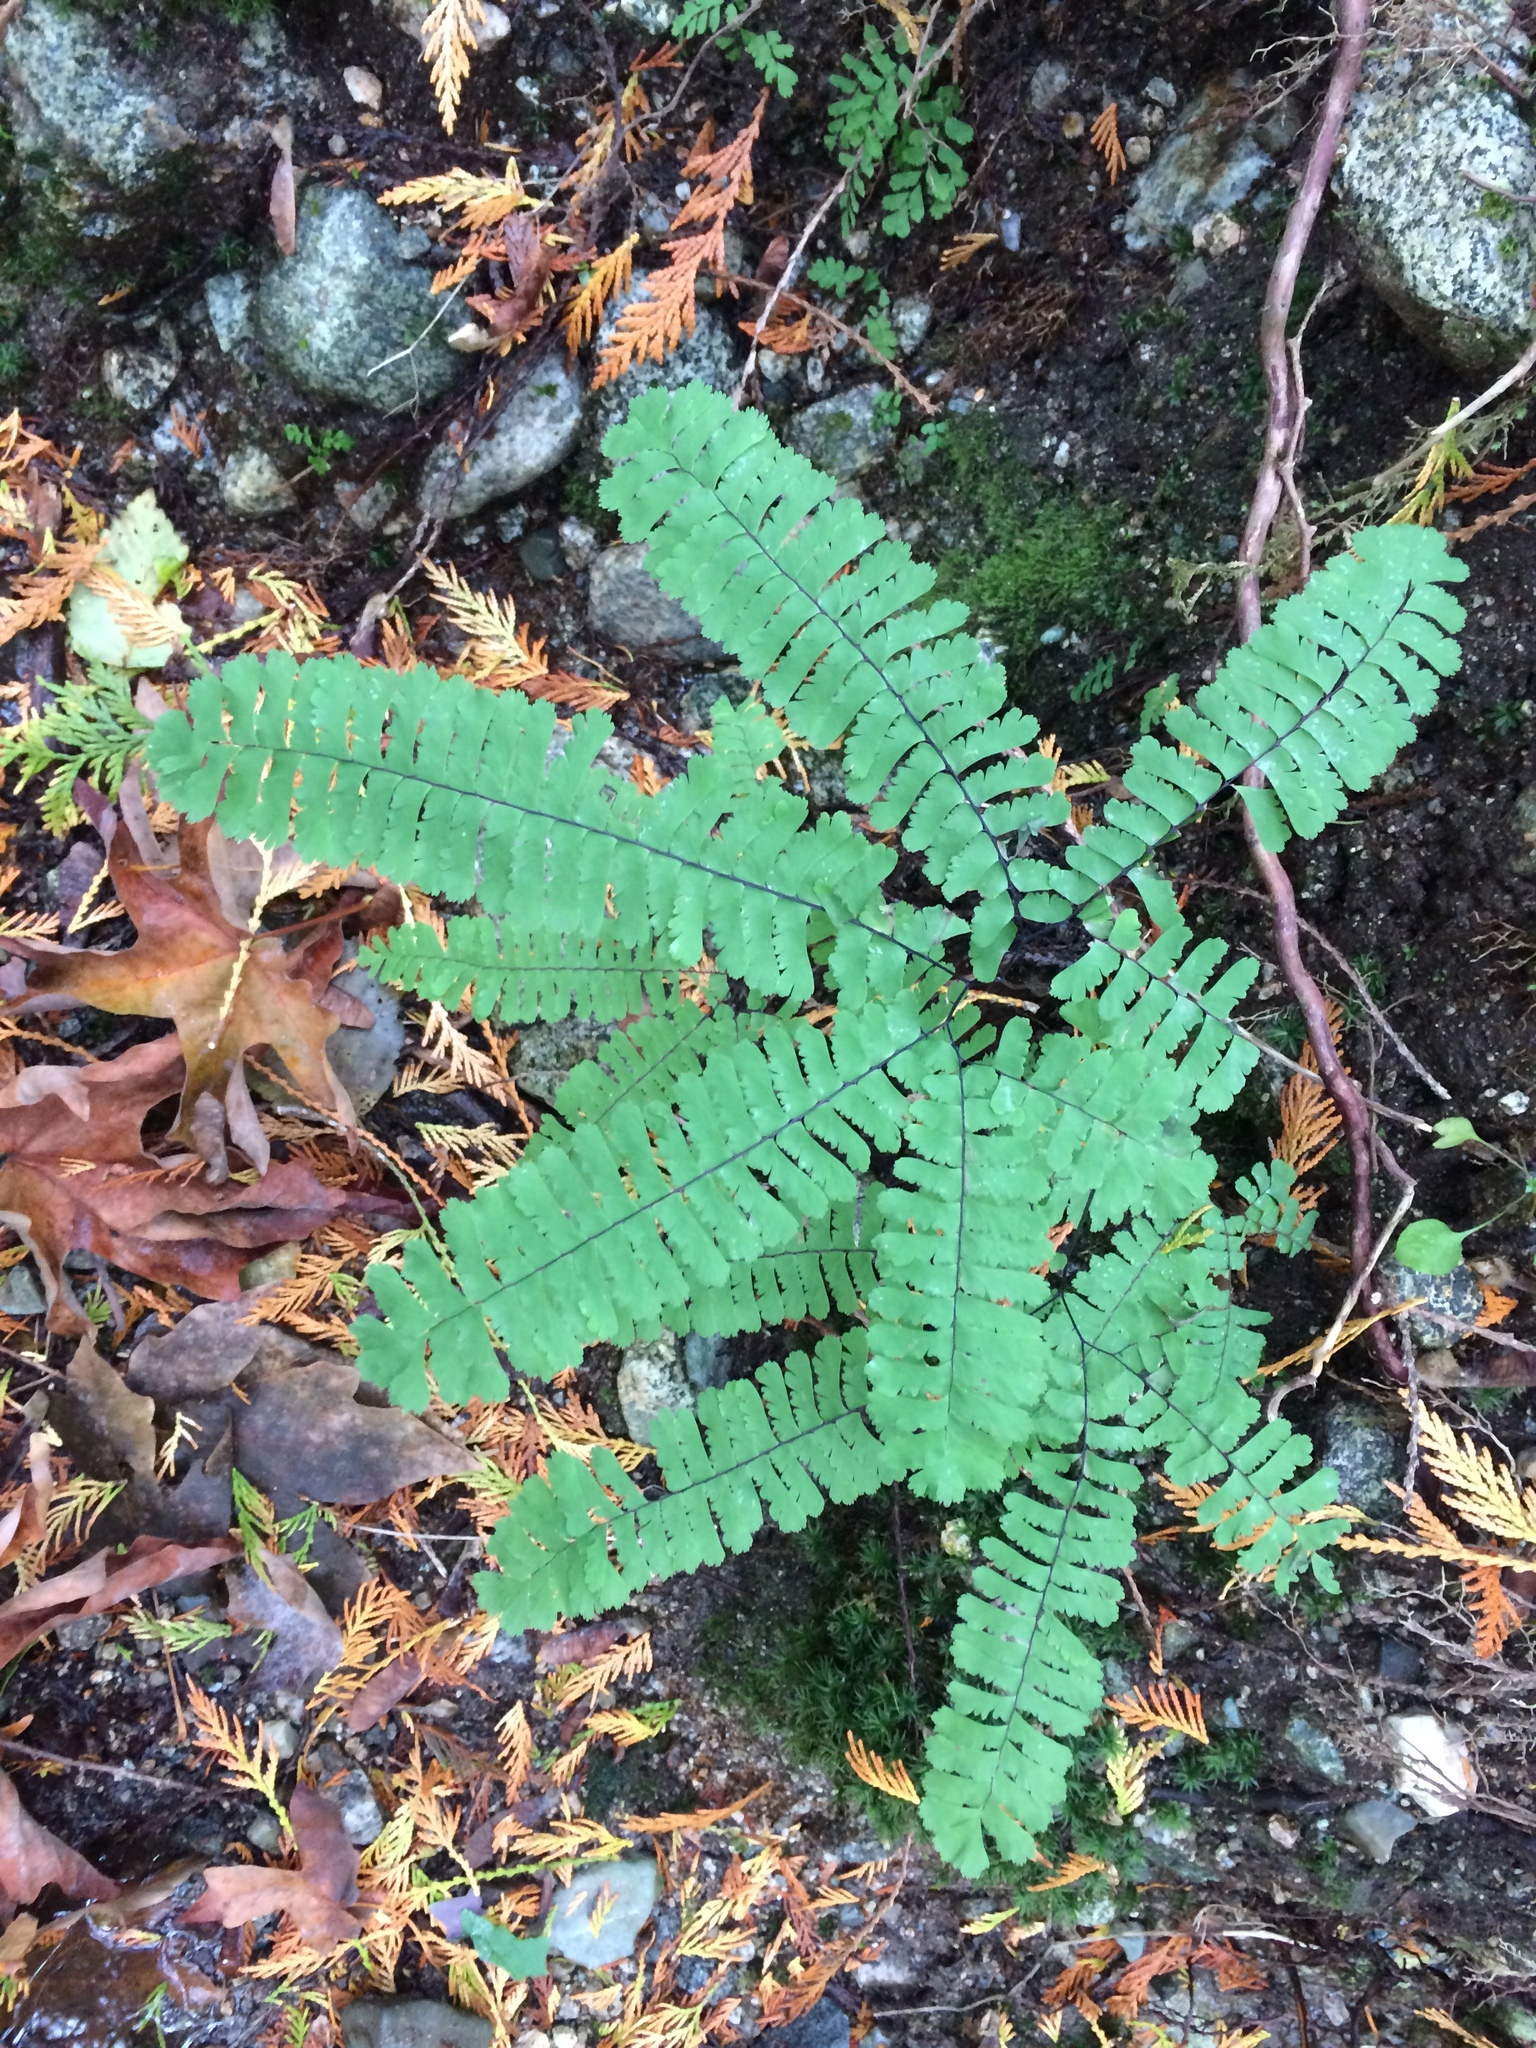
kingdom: Plantae
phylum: Tracheophyta
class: Polypodiopsida
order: Polypodiales
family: Pteridaceae
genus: Adiantum
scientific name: Adiantum aleuticum
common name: Aleutian maidenhair fern
